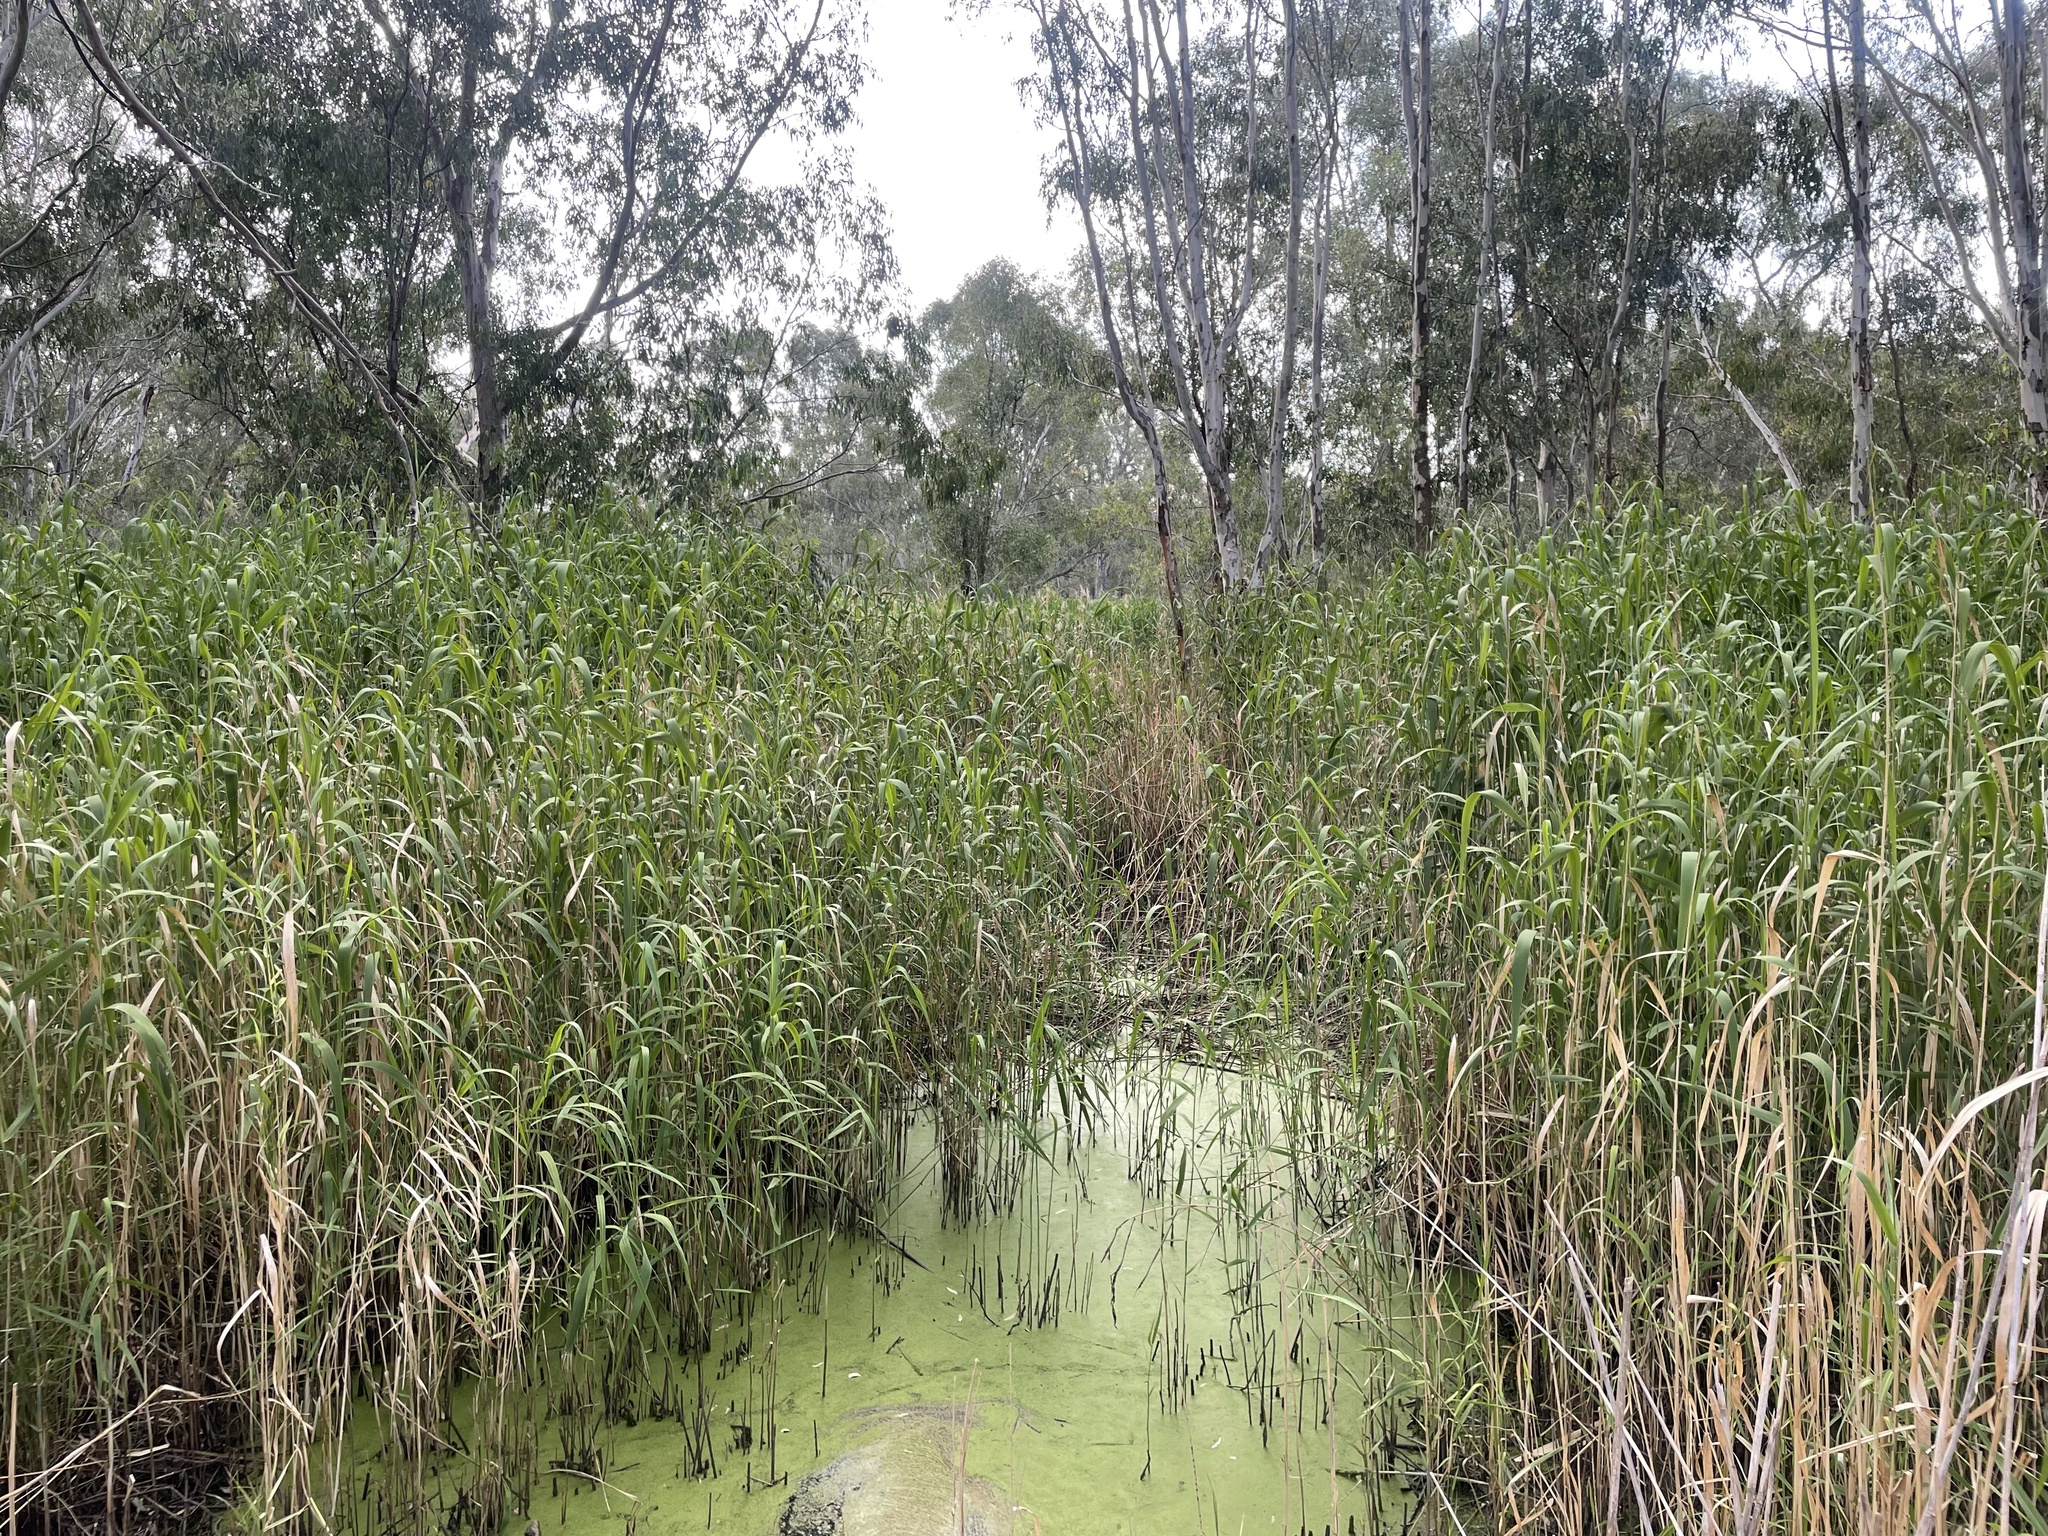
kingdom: Plantae
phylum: Tracheophyta
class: Liliopsida
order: Poales
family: Poaceae
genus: Phragmites
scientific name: Phragmites australis
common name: Common reed
